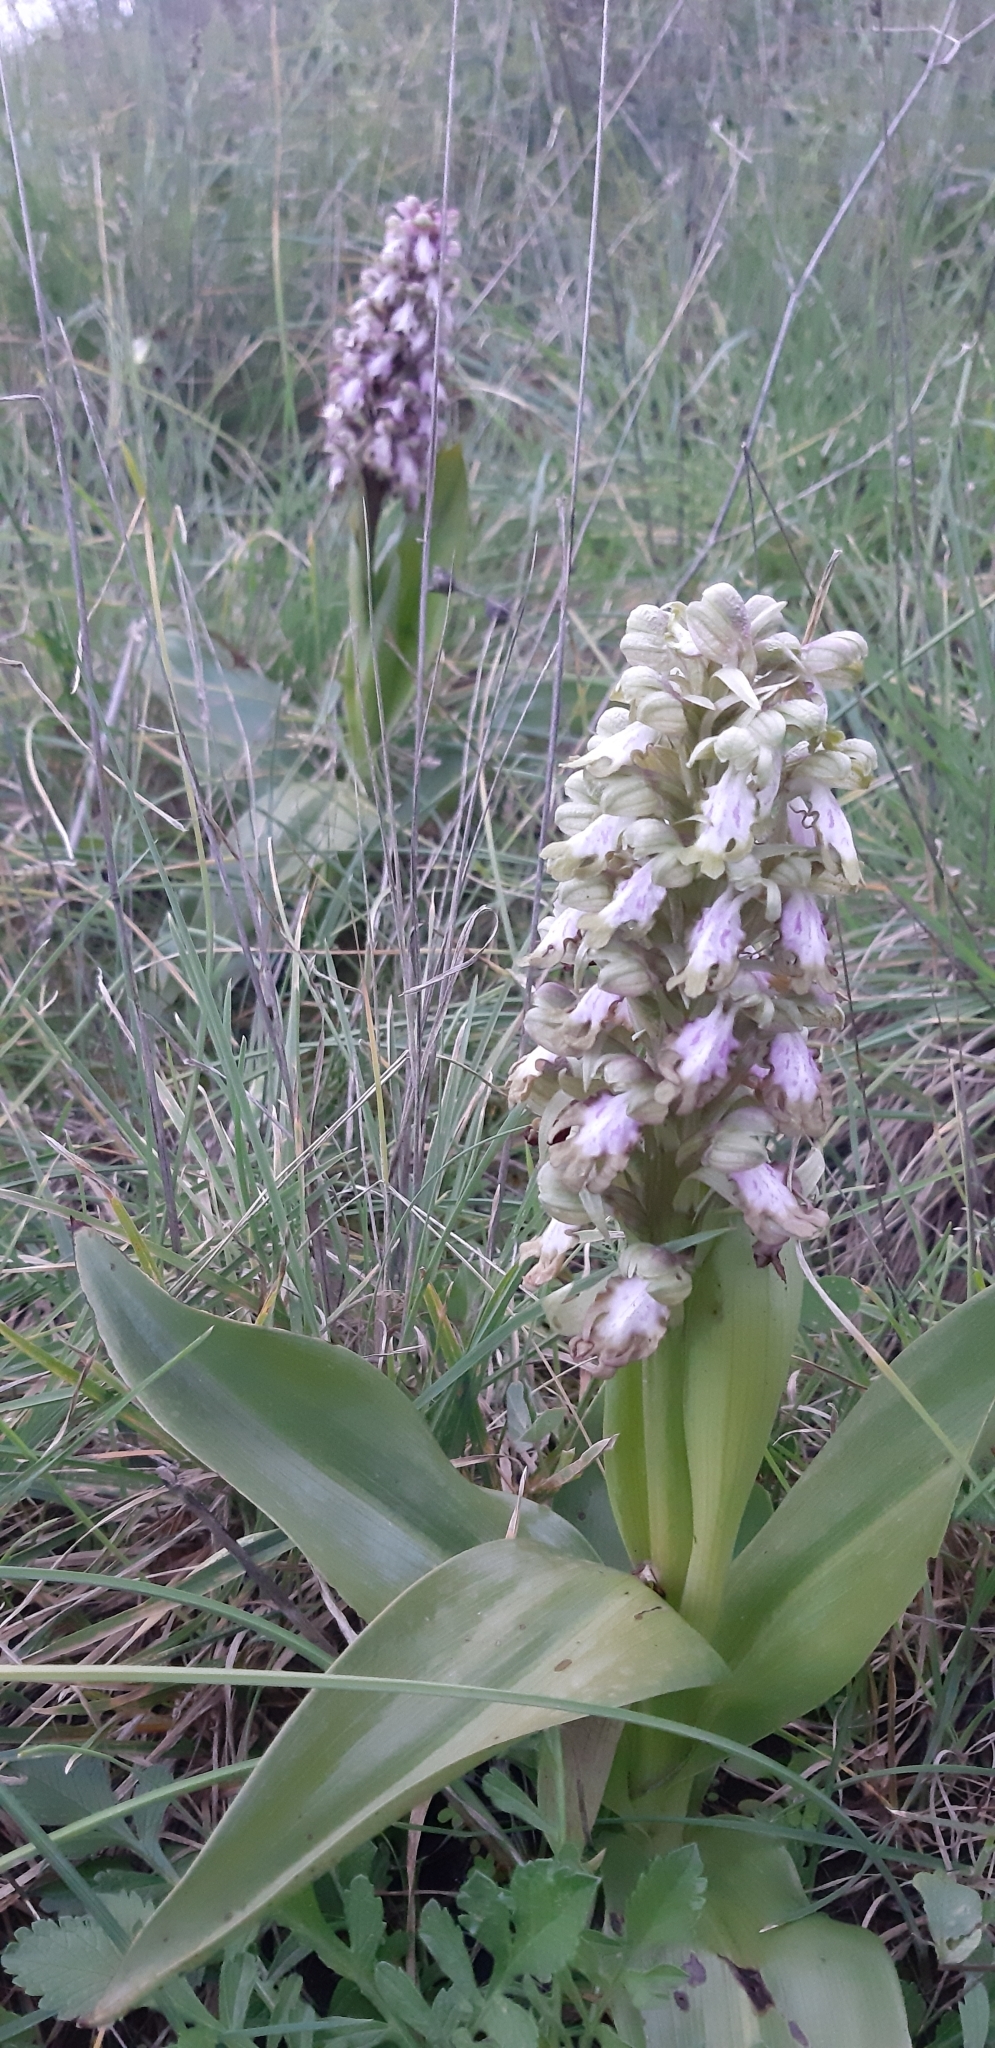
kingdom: Plantae
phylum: Tracheophyta
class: Liliopsida
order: Asparagales
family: Orchidaceae
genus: Himantoglossum
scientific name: Himantoglossum robertianum
